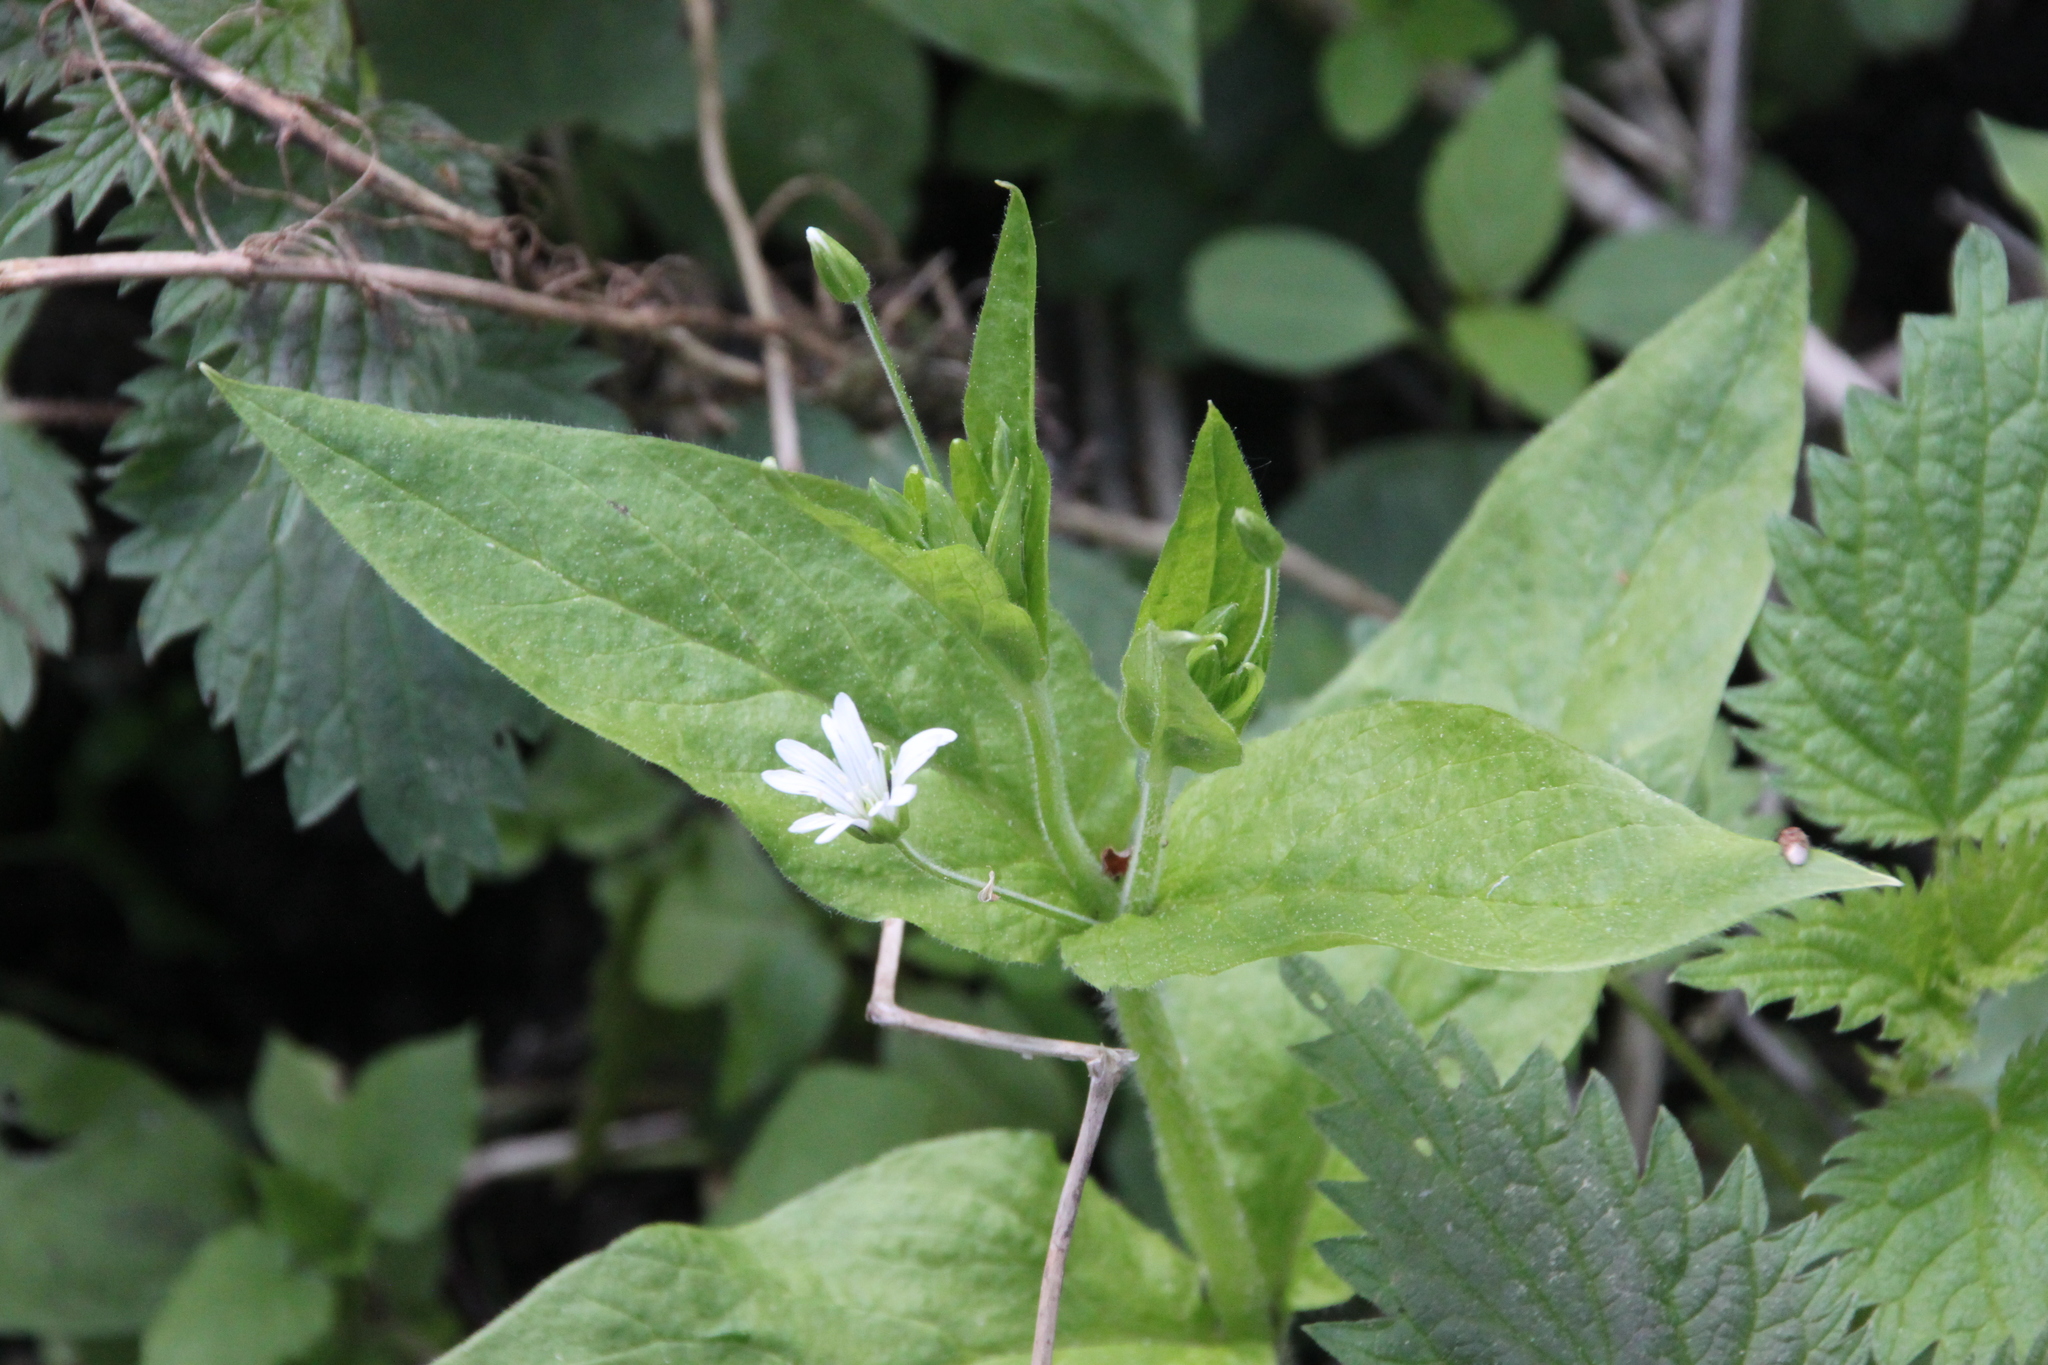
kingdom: Plantae
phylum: Tracheophyta
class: Magnoliopsida
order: Caryophyllales
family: Caryophyllaceae
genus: Stellaria
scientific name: Stellaria nemorum
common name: Wood stitchwort
